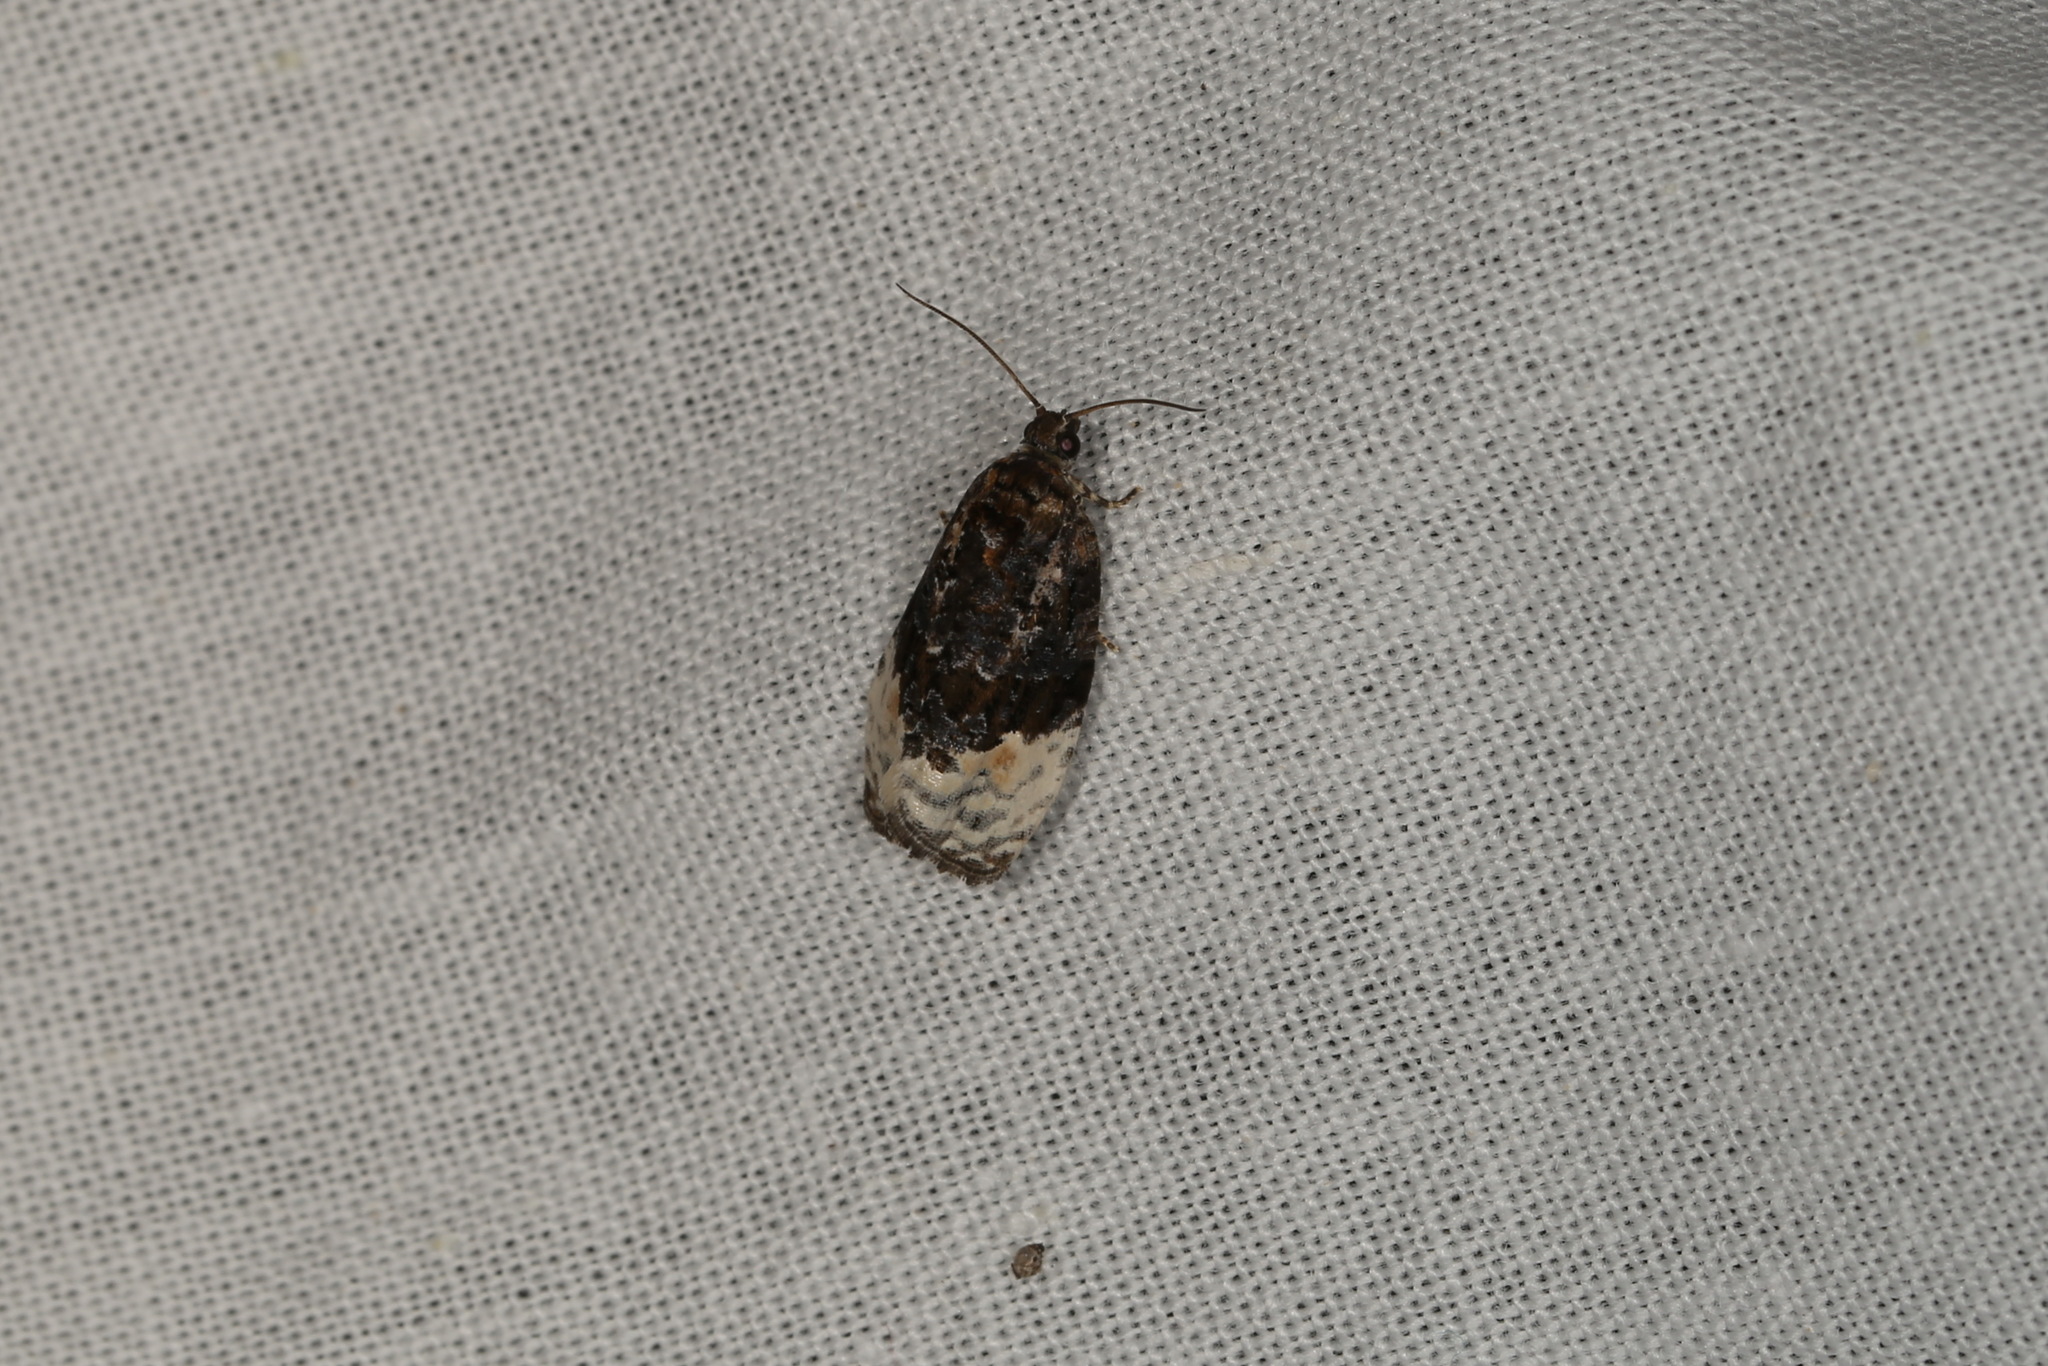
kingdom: Animalia
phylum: Arthropoda
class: Insecta
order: Lepidoptera
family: Tortricidae
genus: Apotomis
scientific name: Apotomis betuletana
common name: Birch marble
